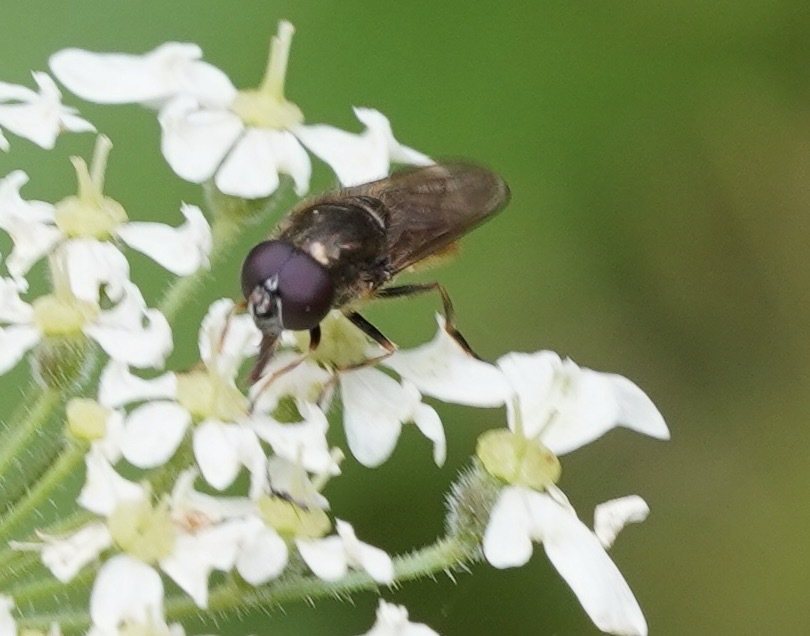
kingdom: Animalia
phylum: Arthropoda
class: Insecta
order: Diptera
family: Syrphidae
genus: Cheilosia
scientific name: Cheilosia
